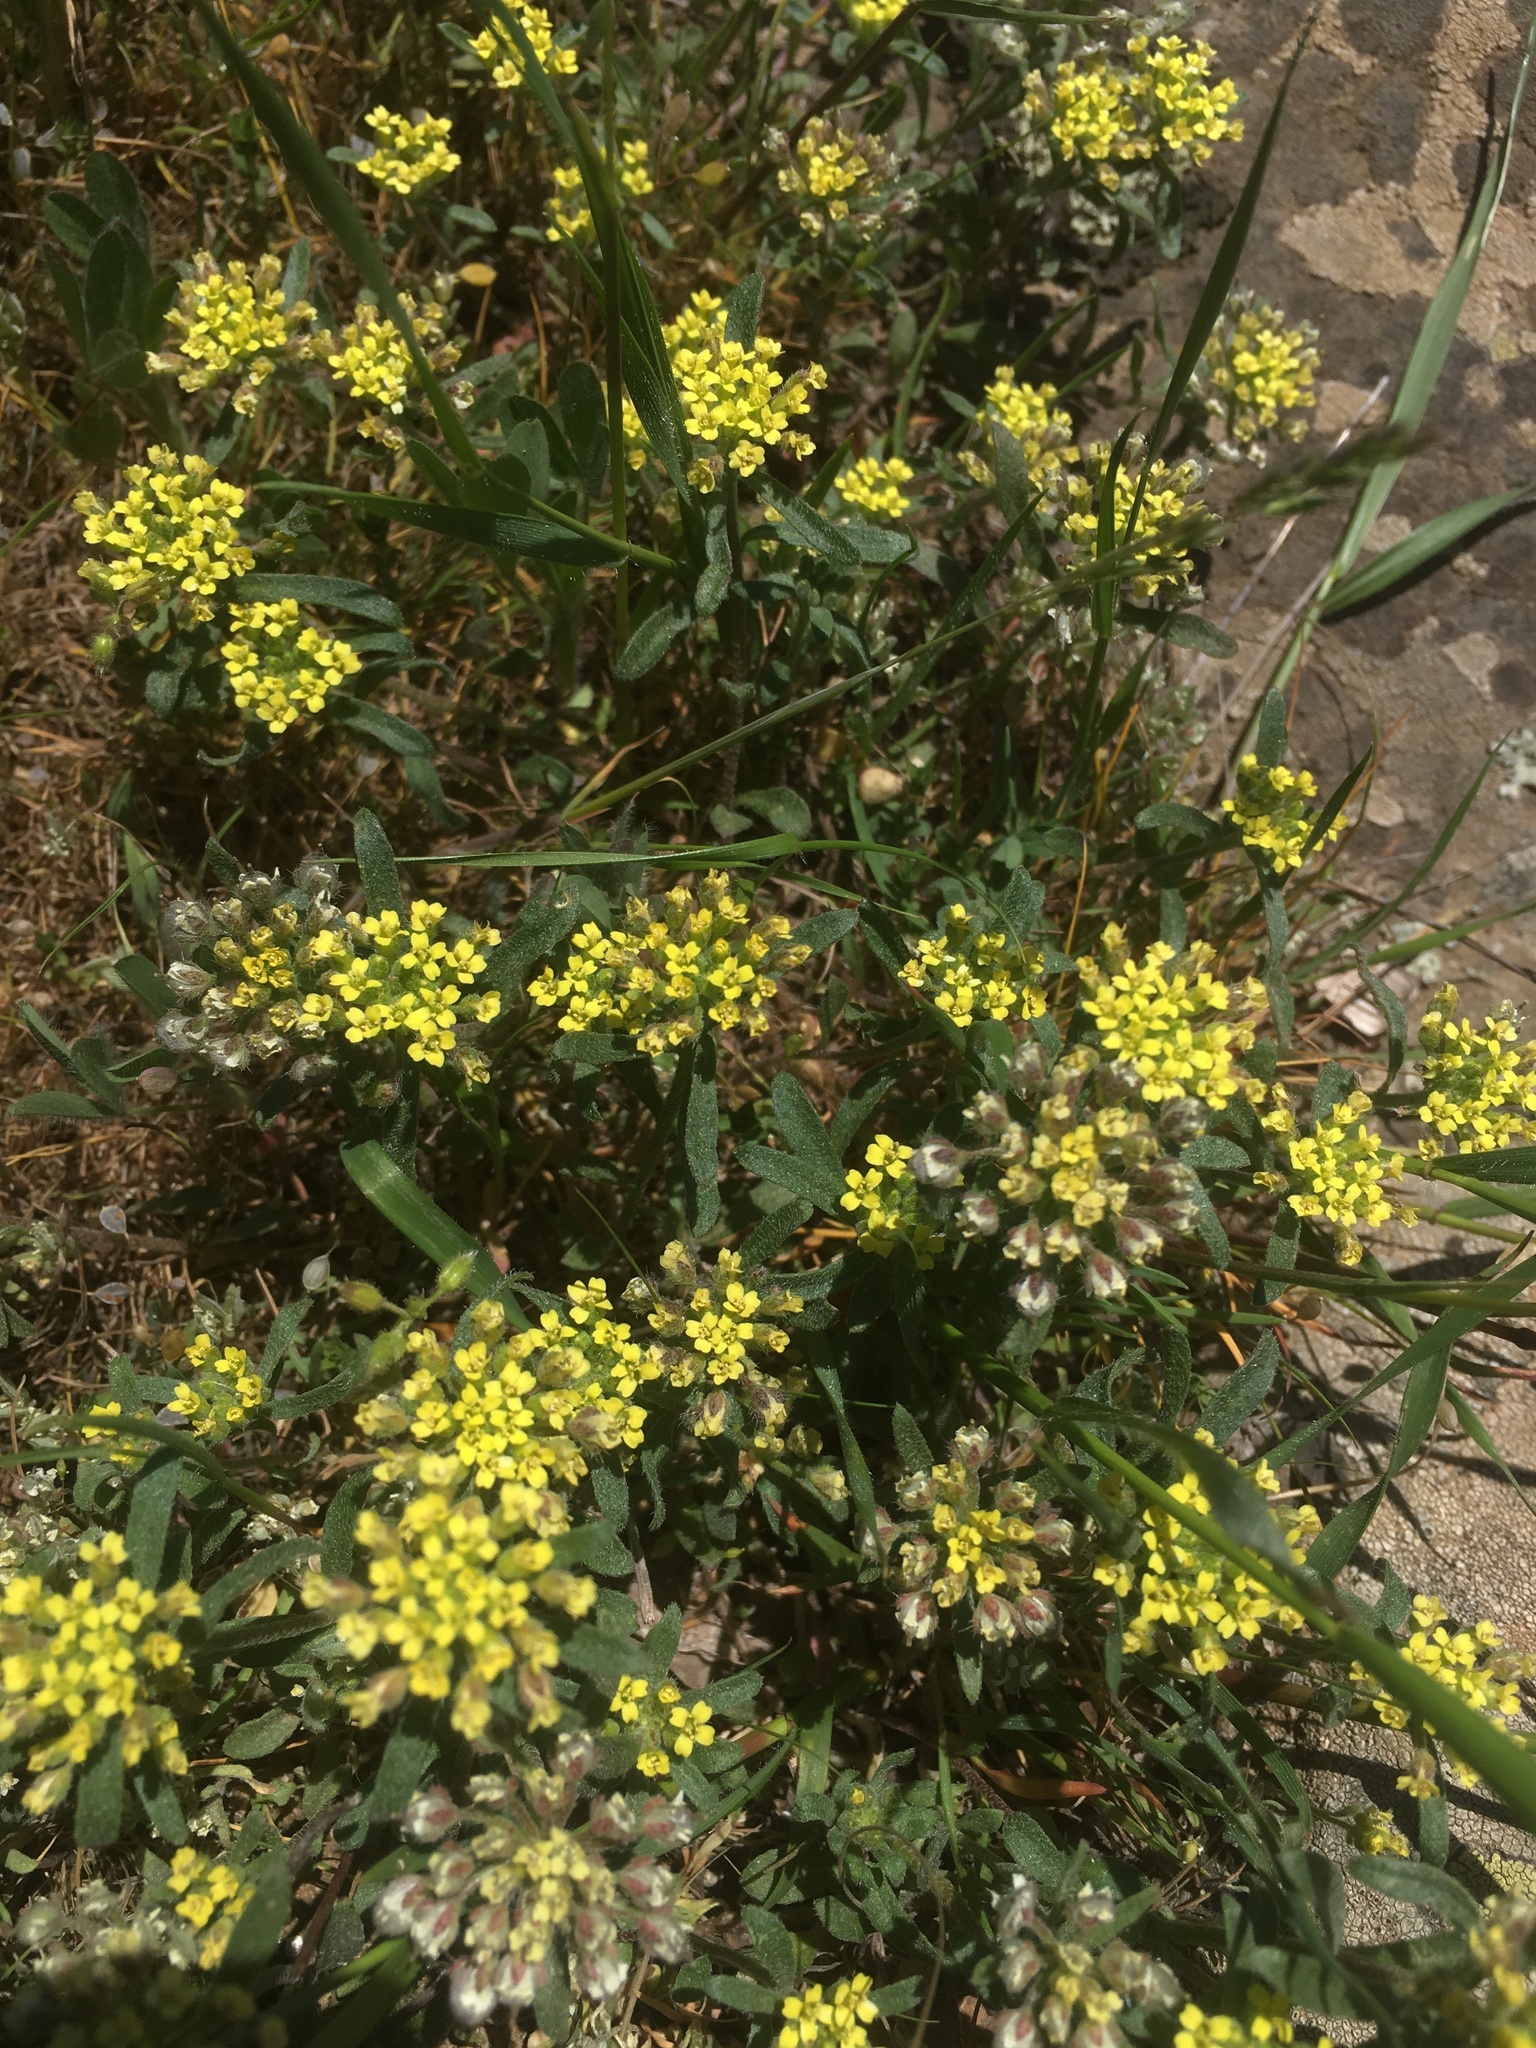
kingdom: Plantae
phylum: Tracheophyta
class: Magnoliopsida
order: Brassicales
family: Brassicaceae
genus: Alyssum
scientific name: Alyssum umbellatum
